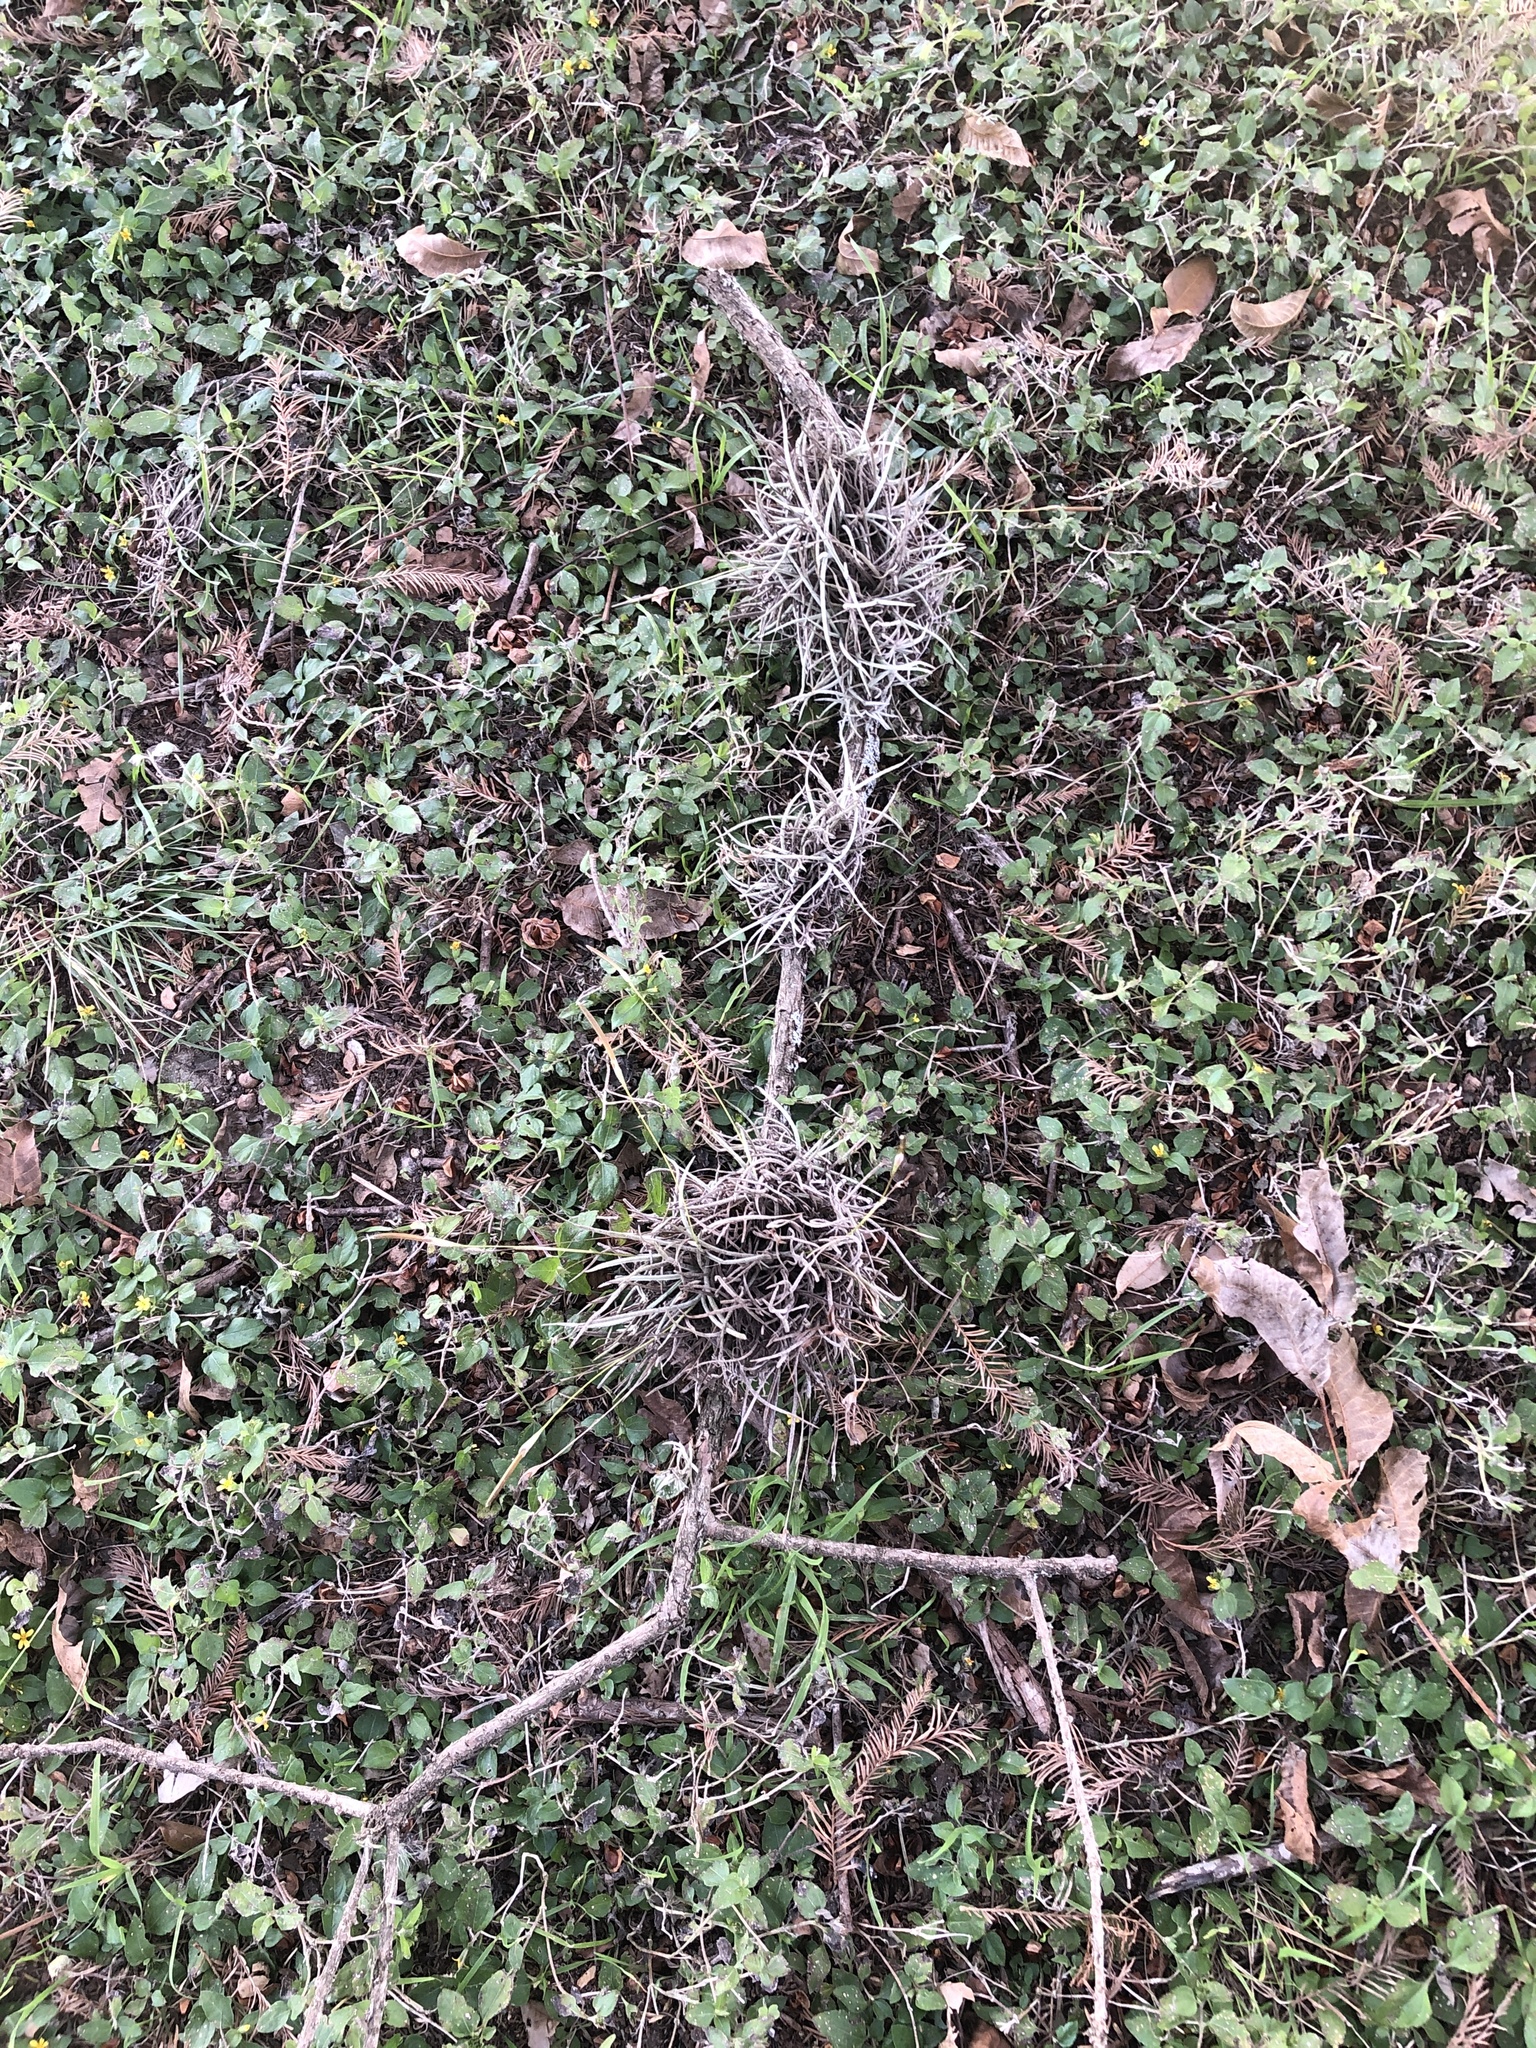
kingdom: Plantae
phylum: Tracheophyta
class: Liliopsida
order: Poales
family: Bromeliaceae
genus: Tillandsia
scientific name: Tillandsia recurvata
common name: Small ballmoss
